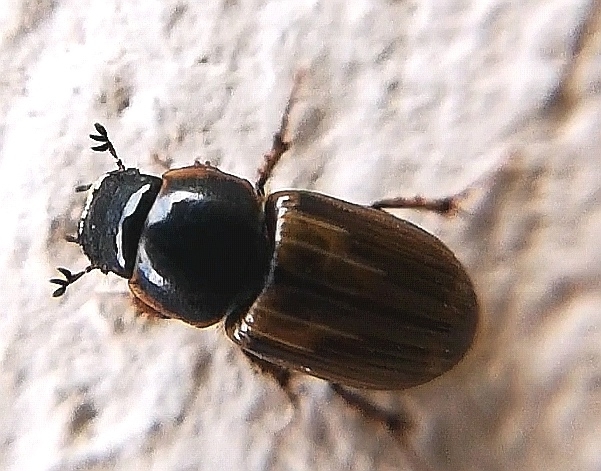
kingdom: Animalia
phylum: Arthropoda
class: Insecta
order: Coleoptera
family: Scarabaeidae
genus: Melinopterus
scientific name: Melinopterus prodromus
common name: Spring small dung beetle
